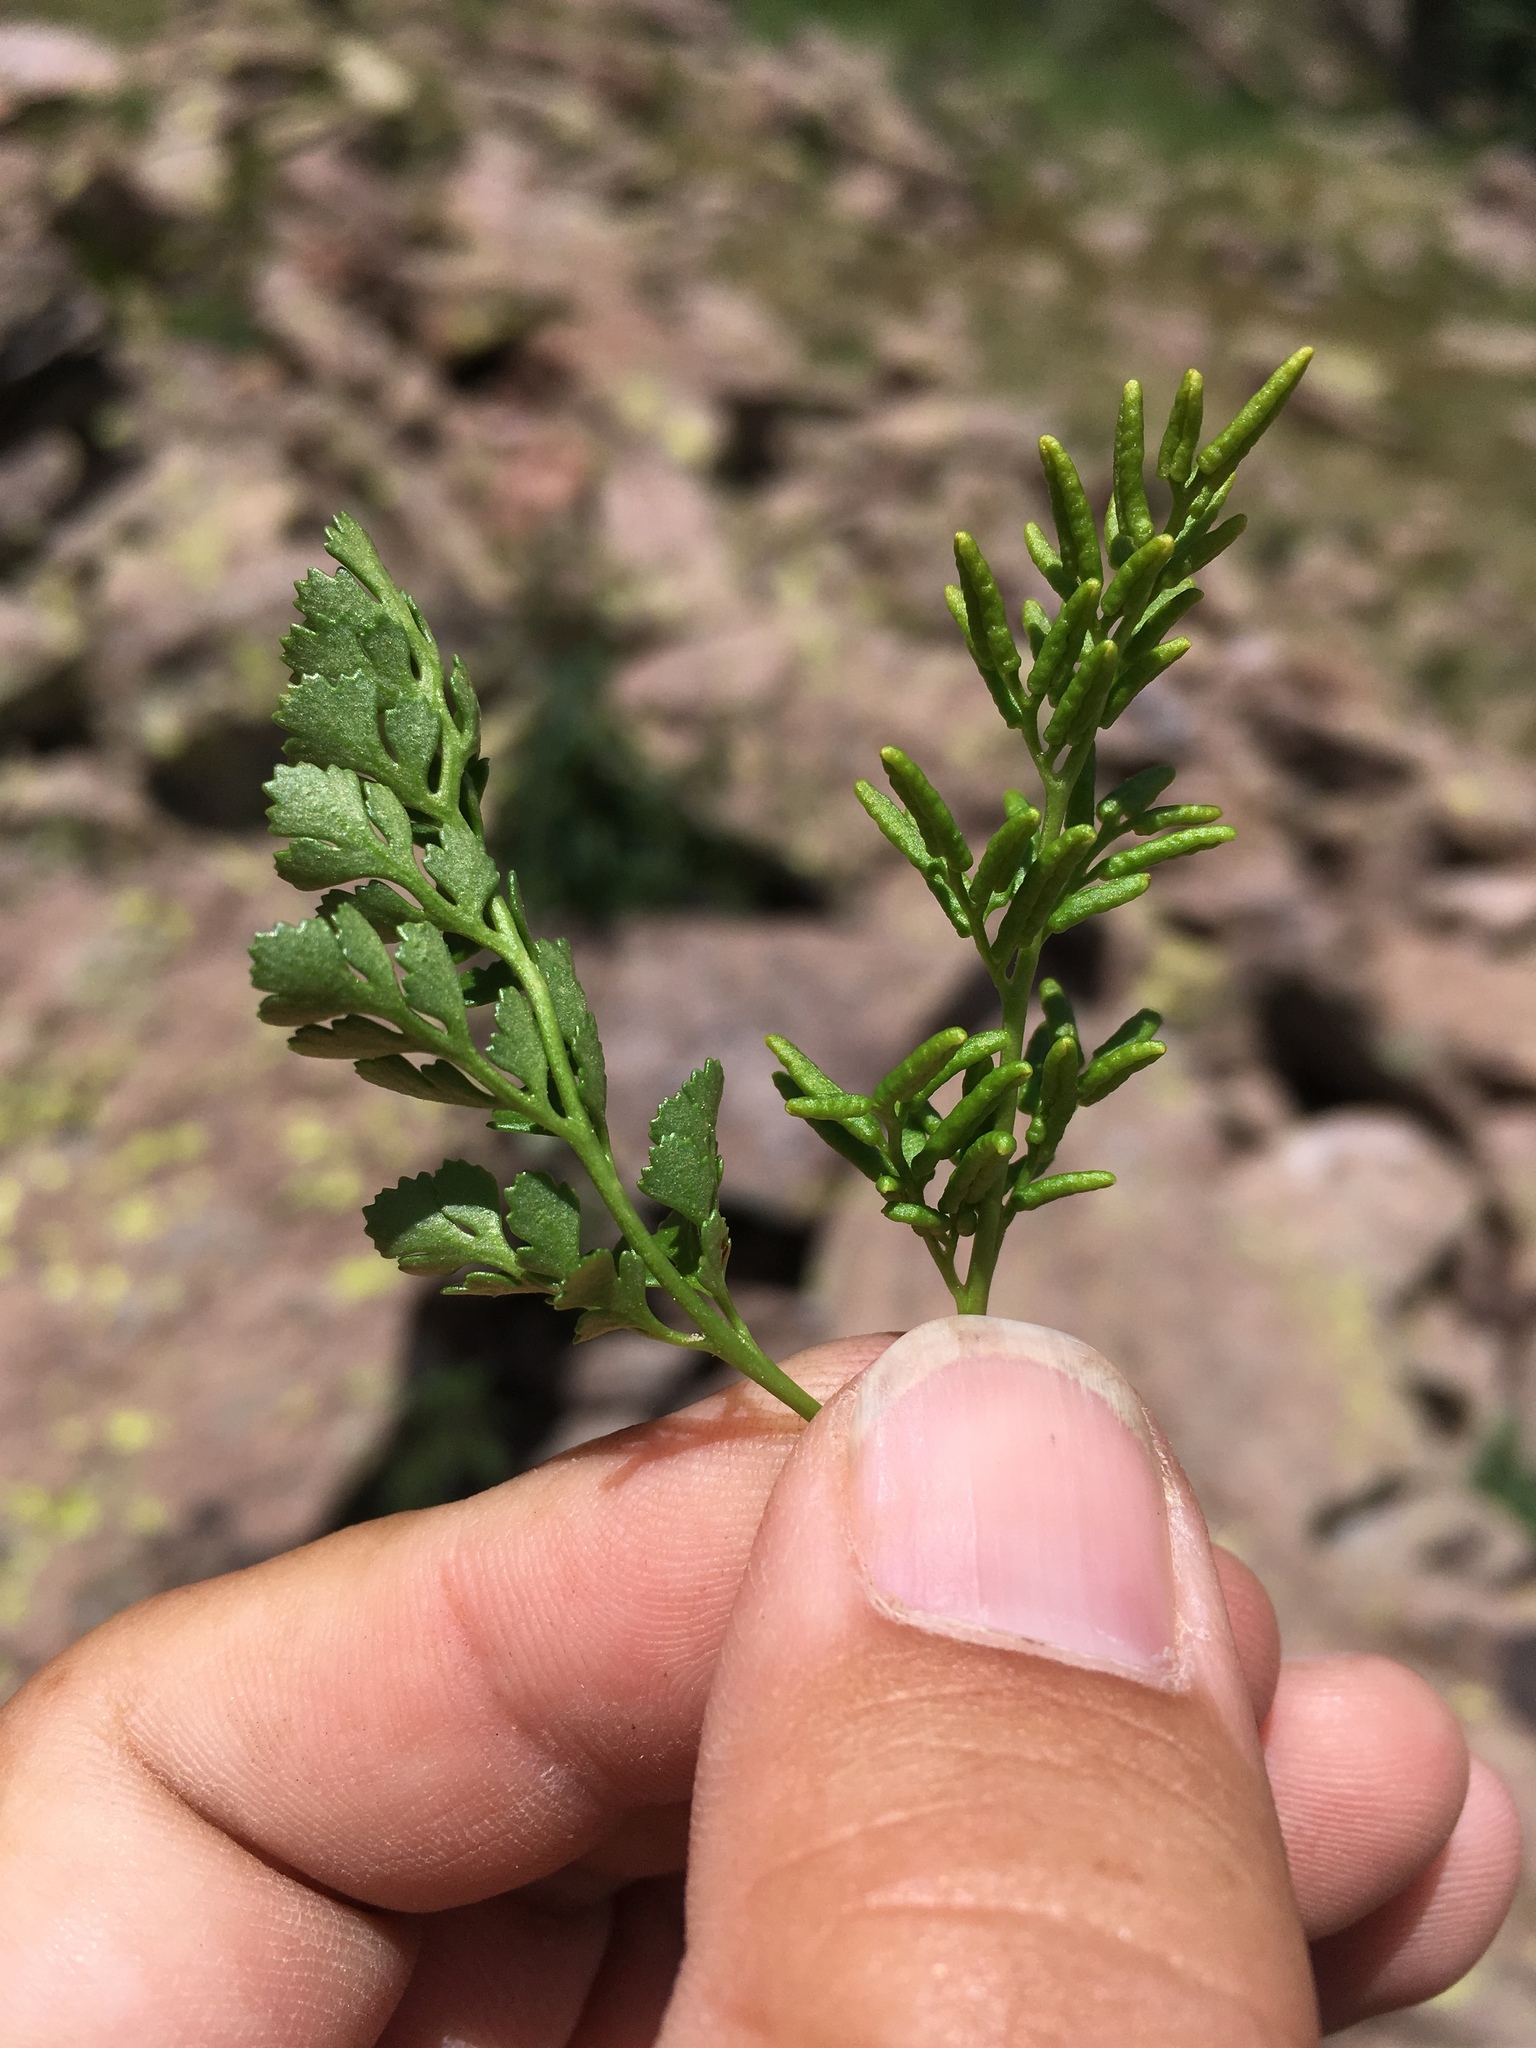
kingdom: Plantae
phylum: Tracheophyta
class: Polypodiopsida
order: Polypodiales
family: Pteridaceae
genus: Cryptogramma
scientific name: Cryptogramma acrostichoides
